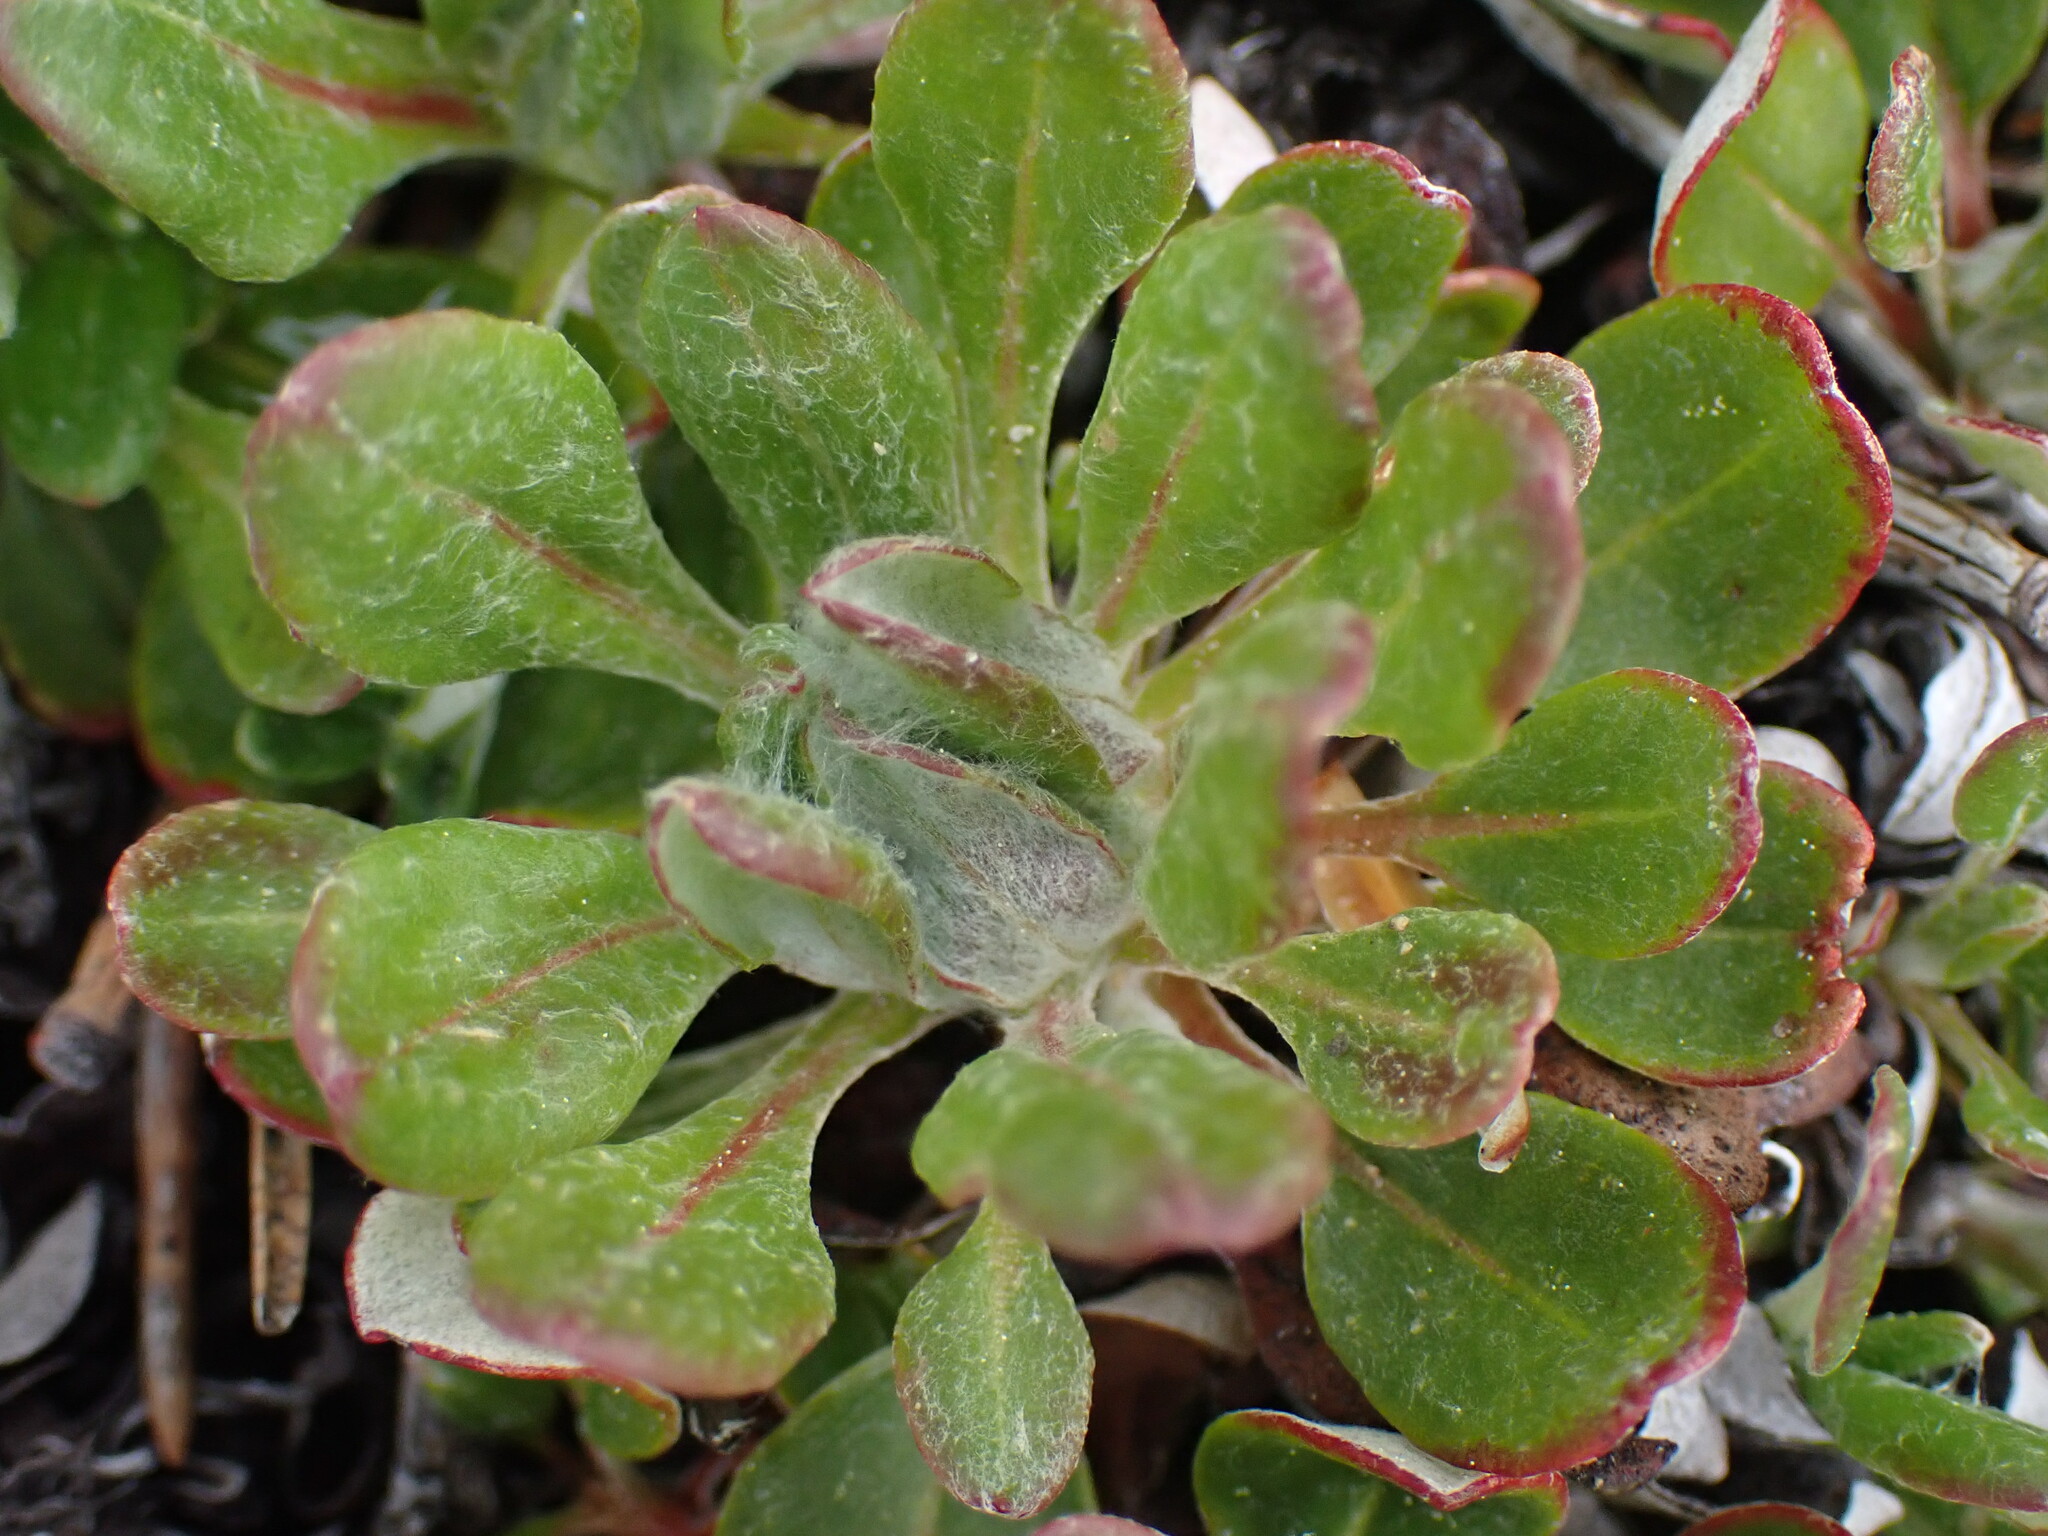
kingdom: Plantae
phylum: Tracheophyta
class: Magnoliopsida
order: Caryophyllales
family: Polygonaceae
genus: Eriogonum
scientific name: Eriogonum umbellatum
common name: Sulfur-buckwheat
